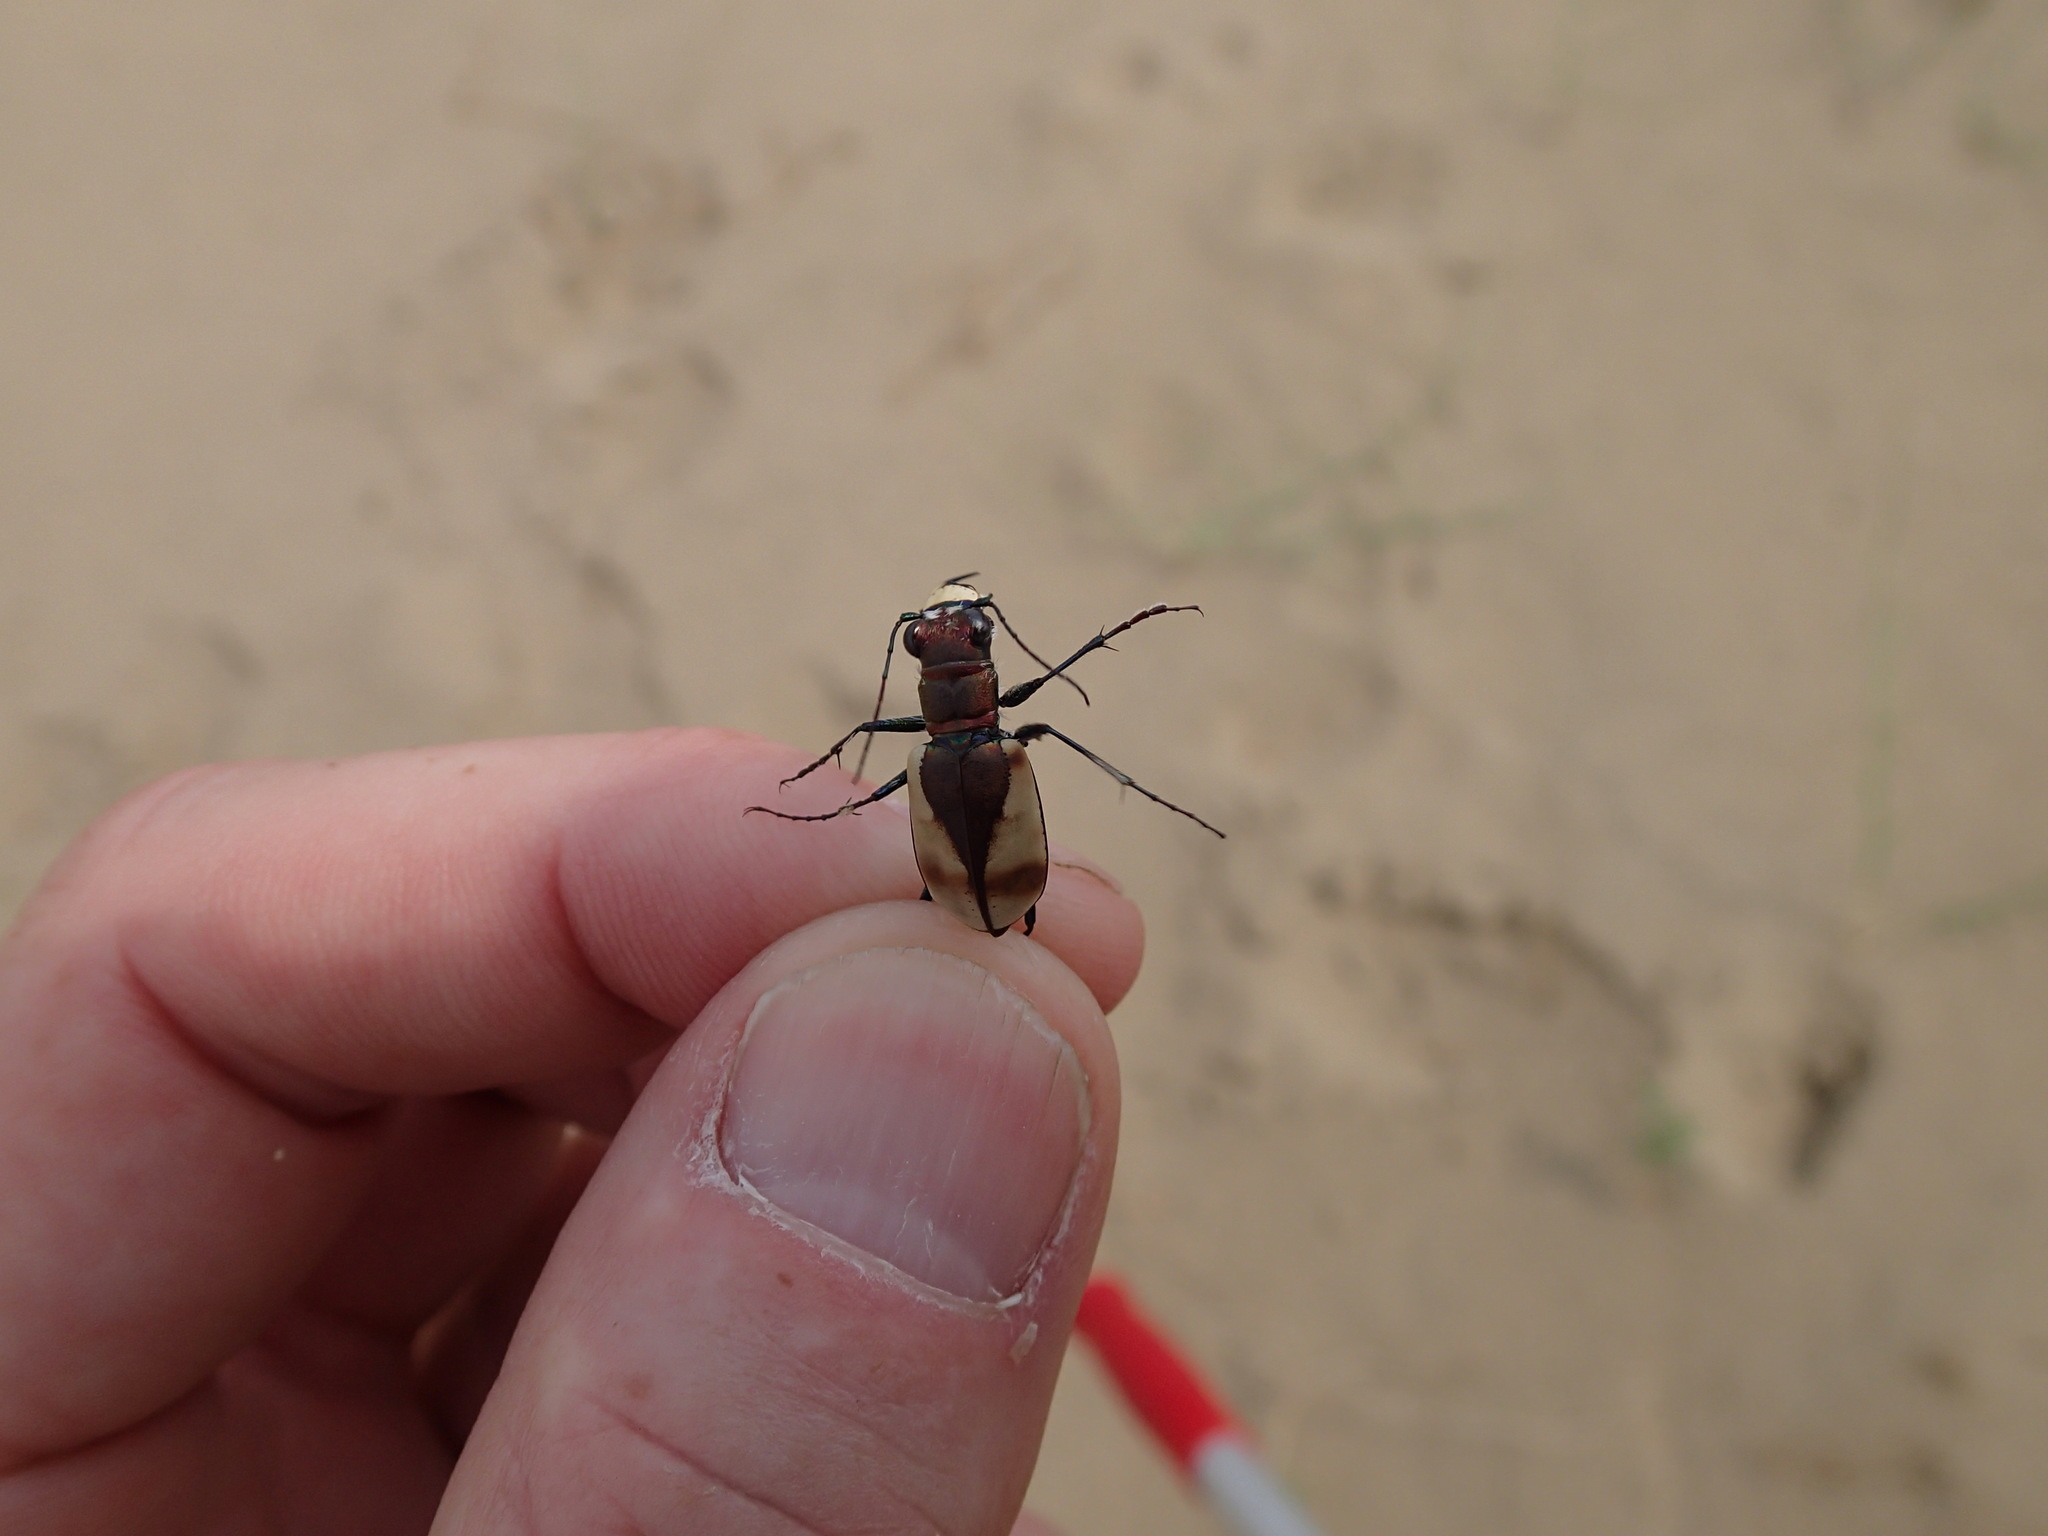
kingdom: Animalia
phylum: Arthropoda
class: Insecta
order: Coleoptera
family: Carabidae
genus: Cicindela
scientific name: Cicindela formosa
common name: Big sand tiger beetle
